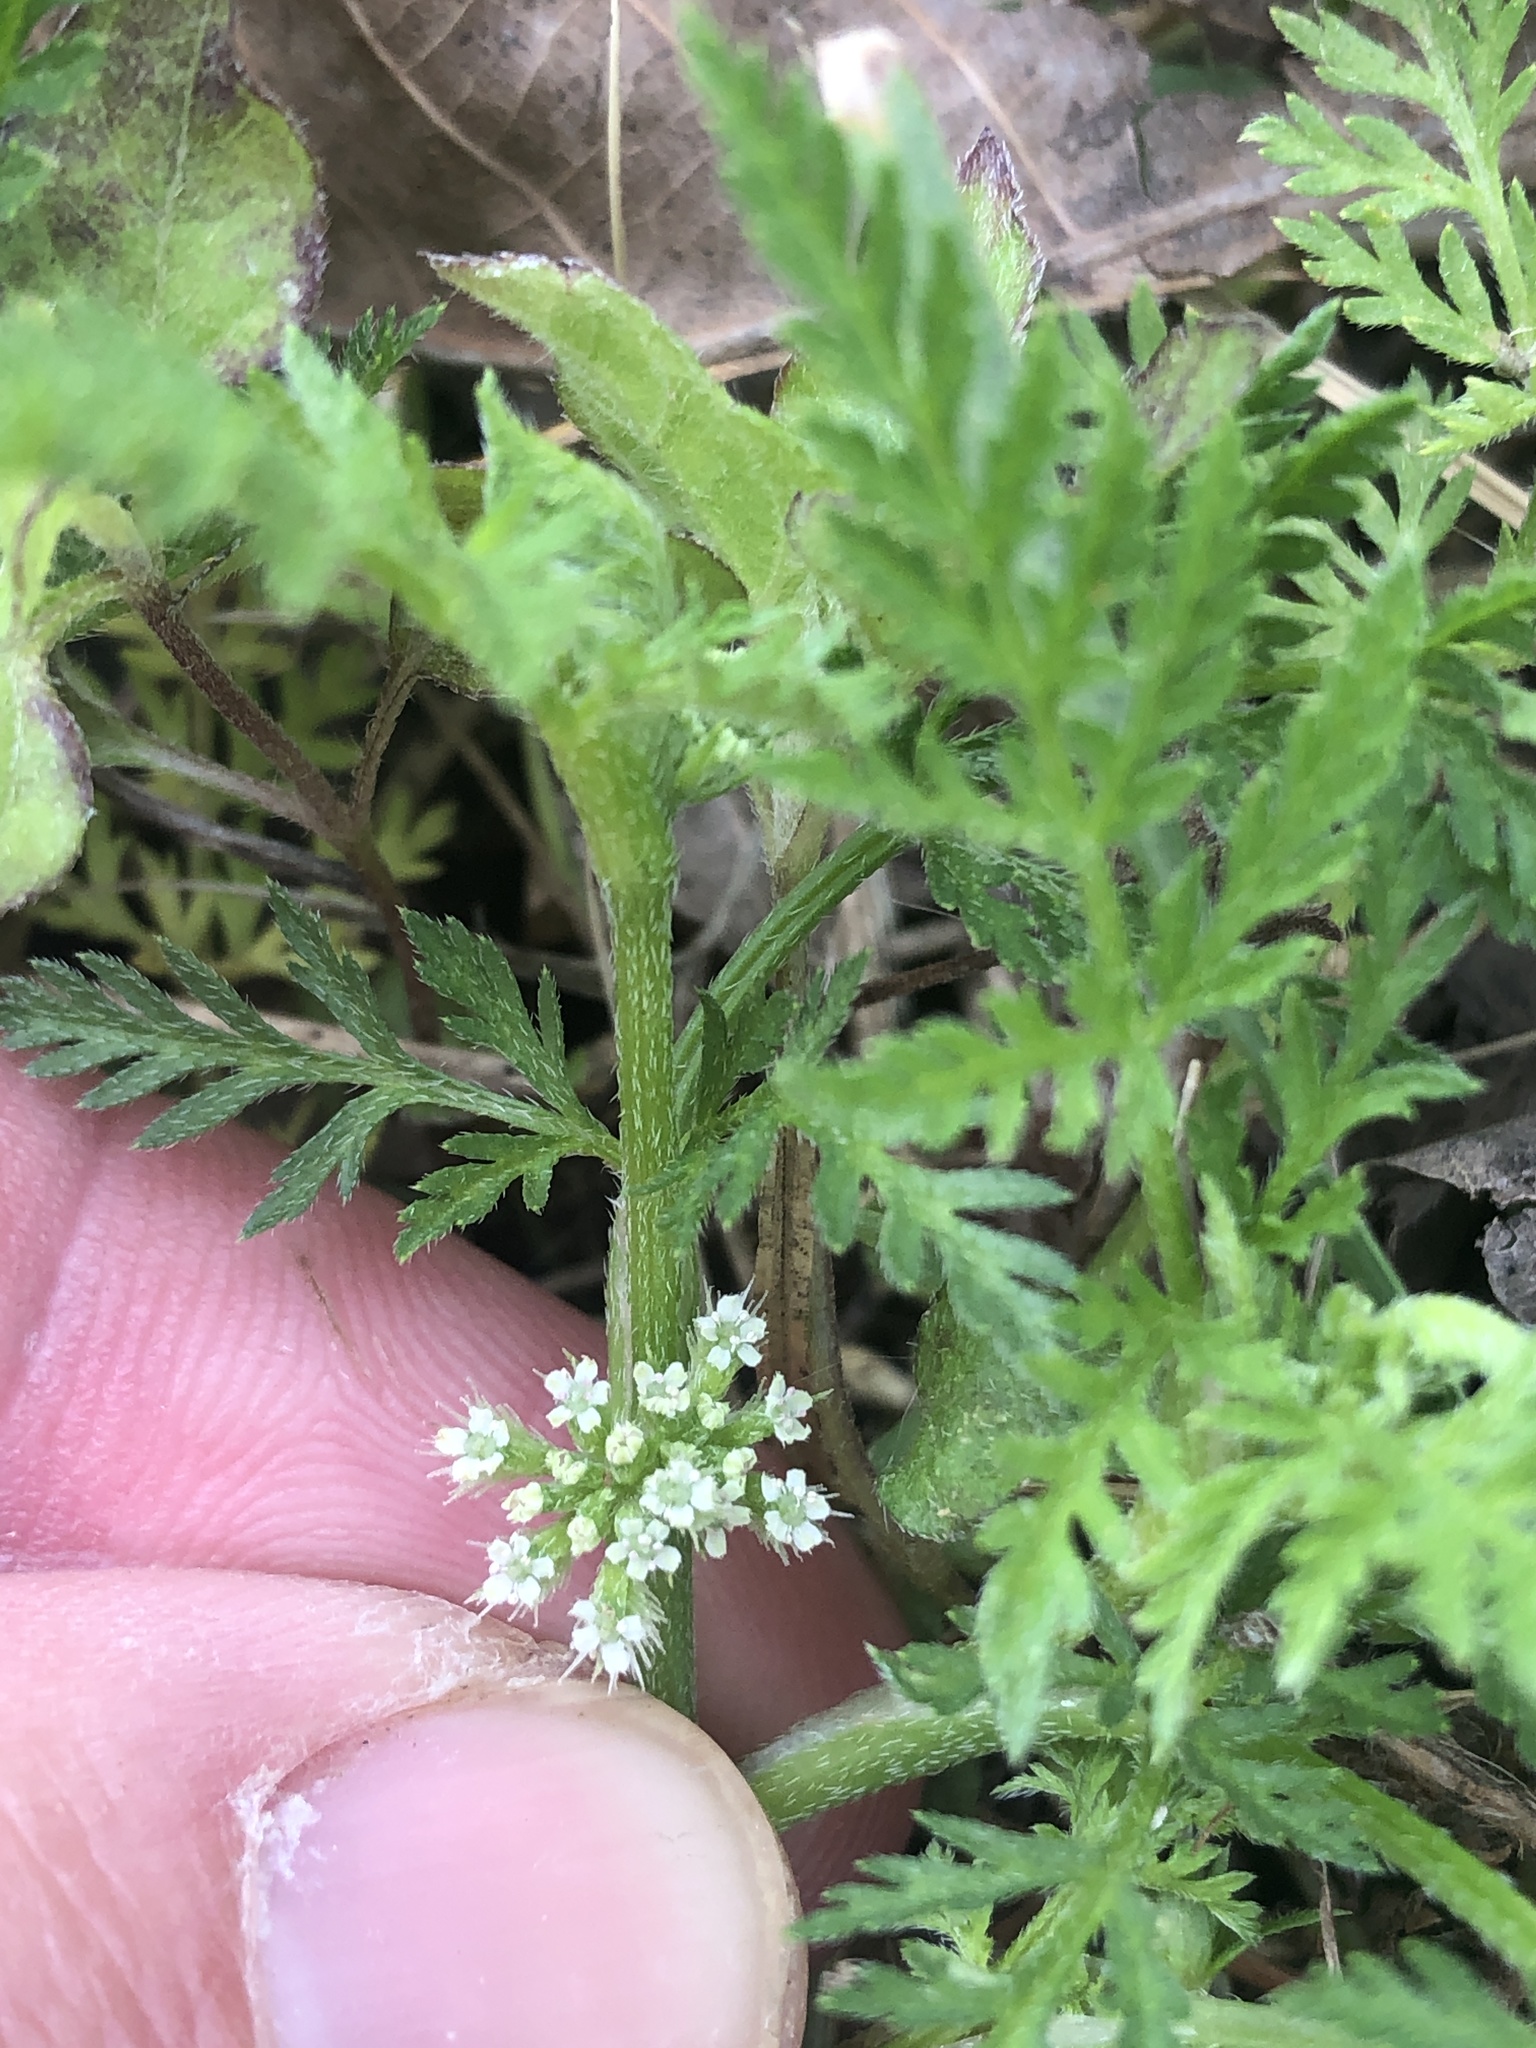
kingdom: Plantae
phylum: Tracheophyta
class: Magnoliopsida
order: Apiales
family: Apiaceae
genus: Torilis
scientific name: Torilis nodosa
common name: Knotted hedge-parsley
